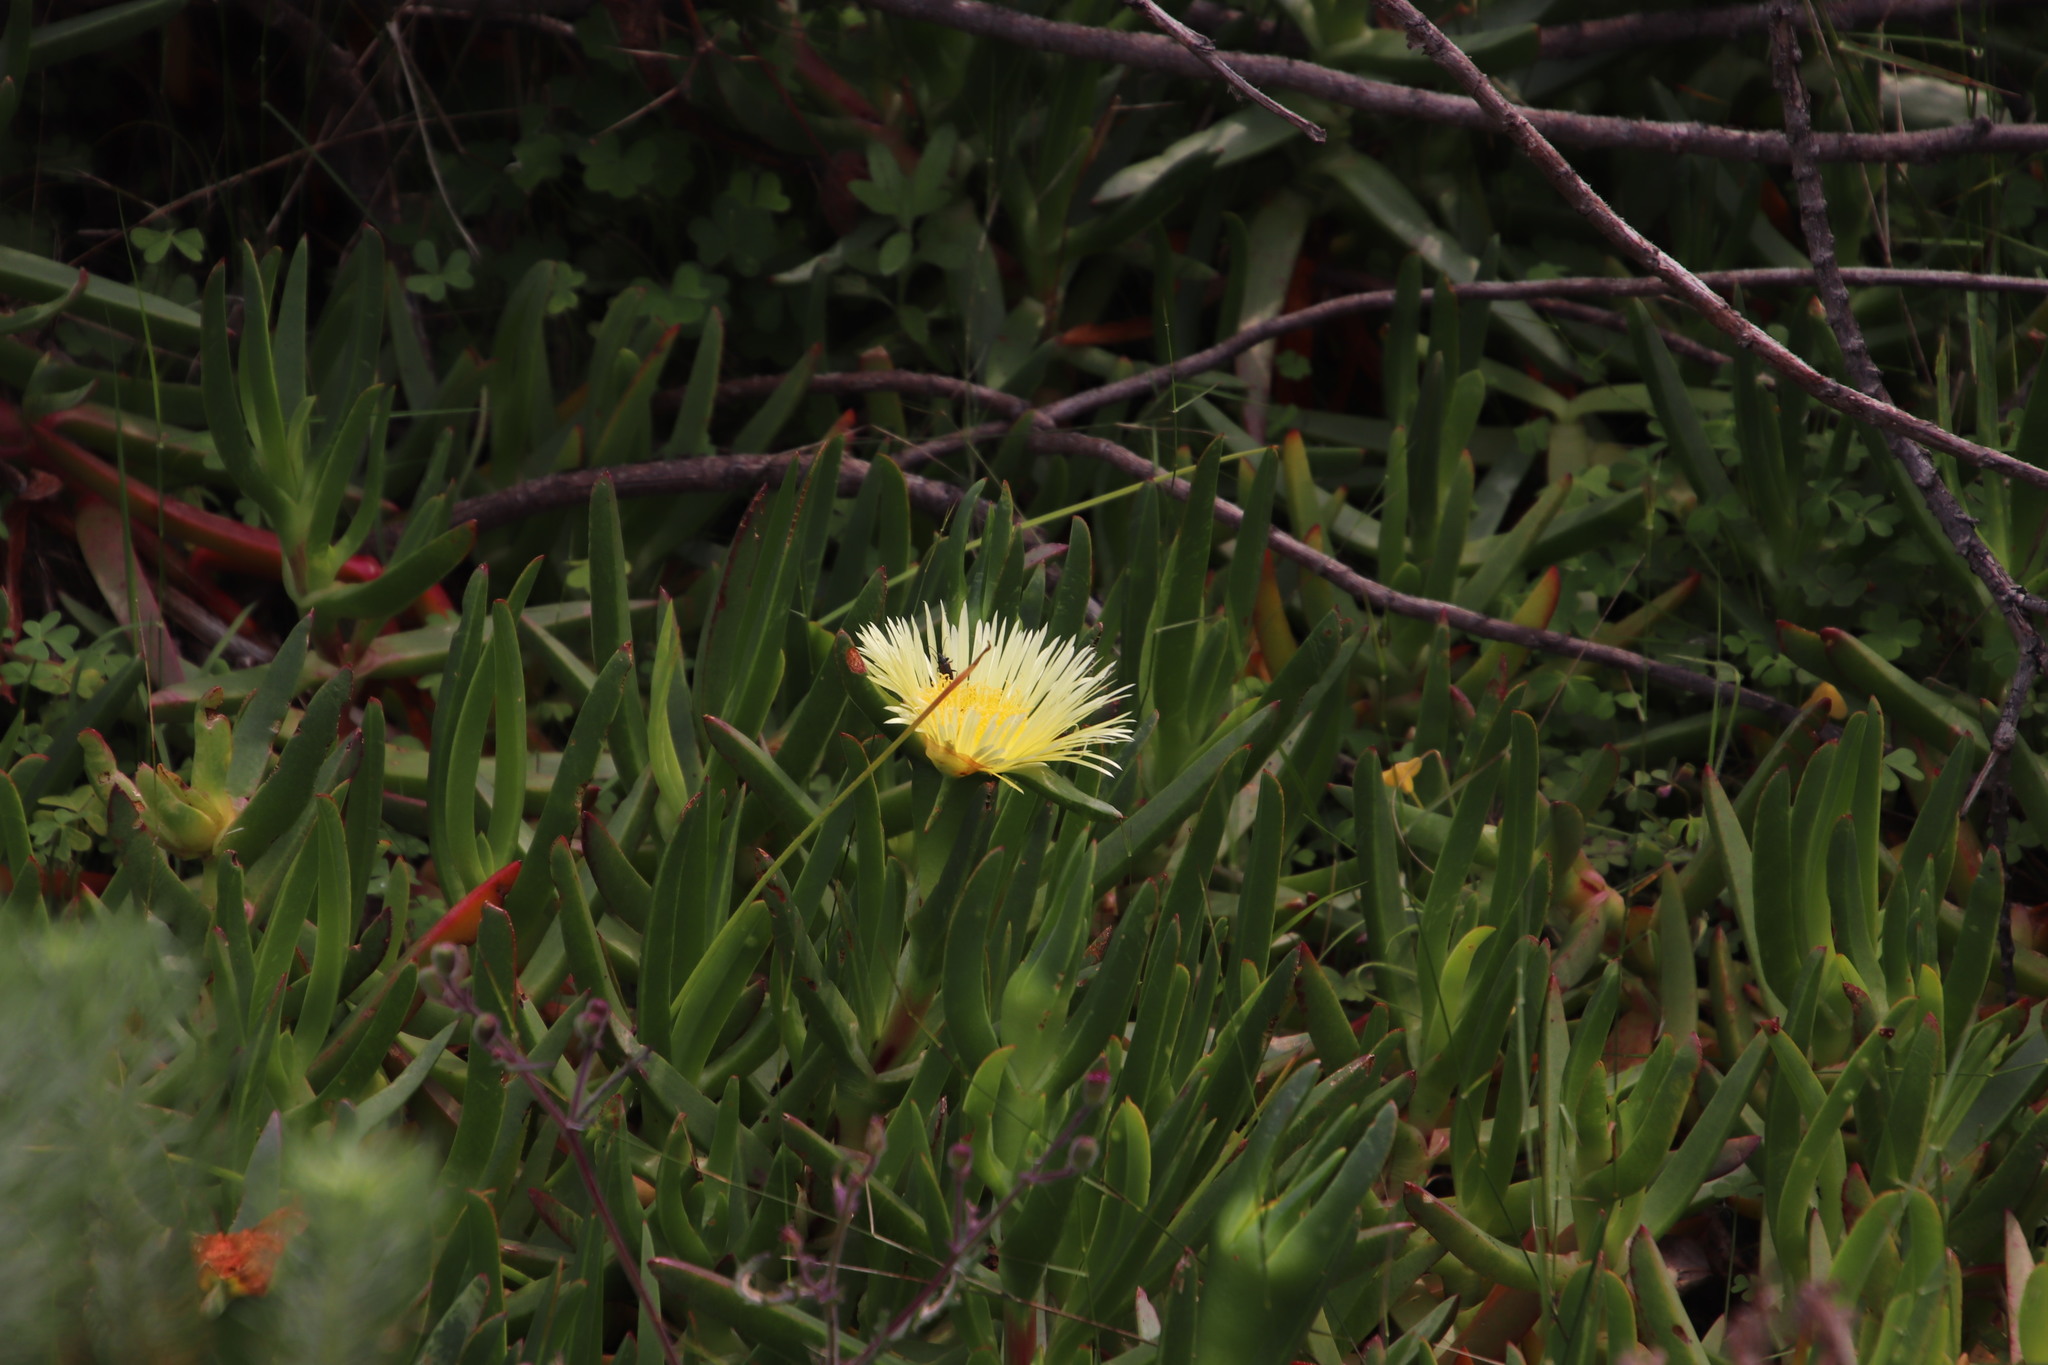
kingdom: Plantae
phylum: Tracheophyta
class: Magnoliopsida
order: Caryophyllales
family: Aizoaceae
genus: Carpobrotus
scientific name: Carpobrotus edulis
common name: Hottentot-fig
